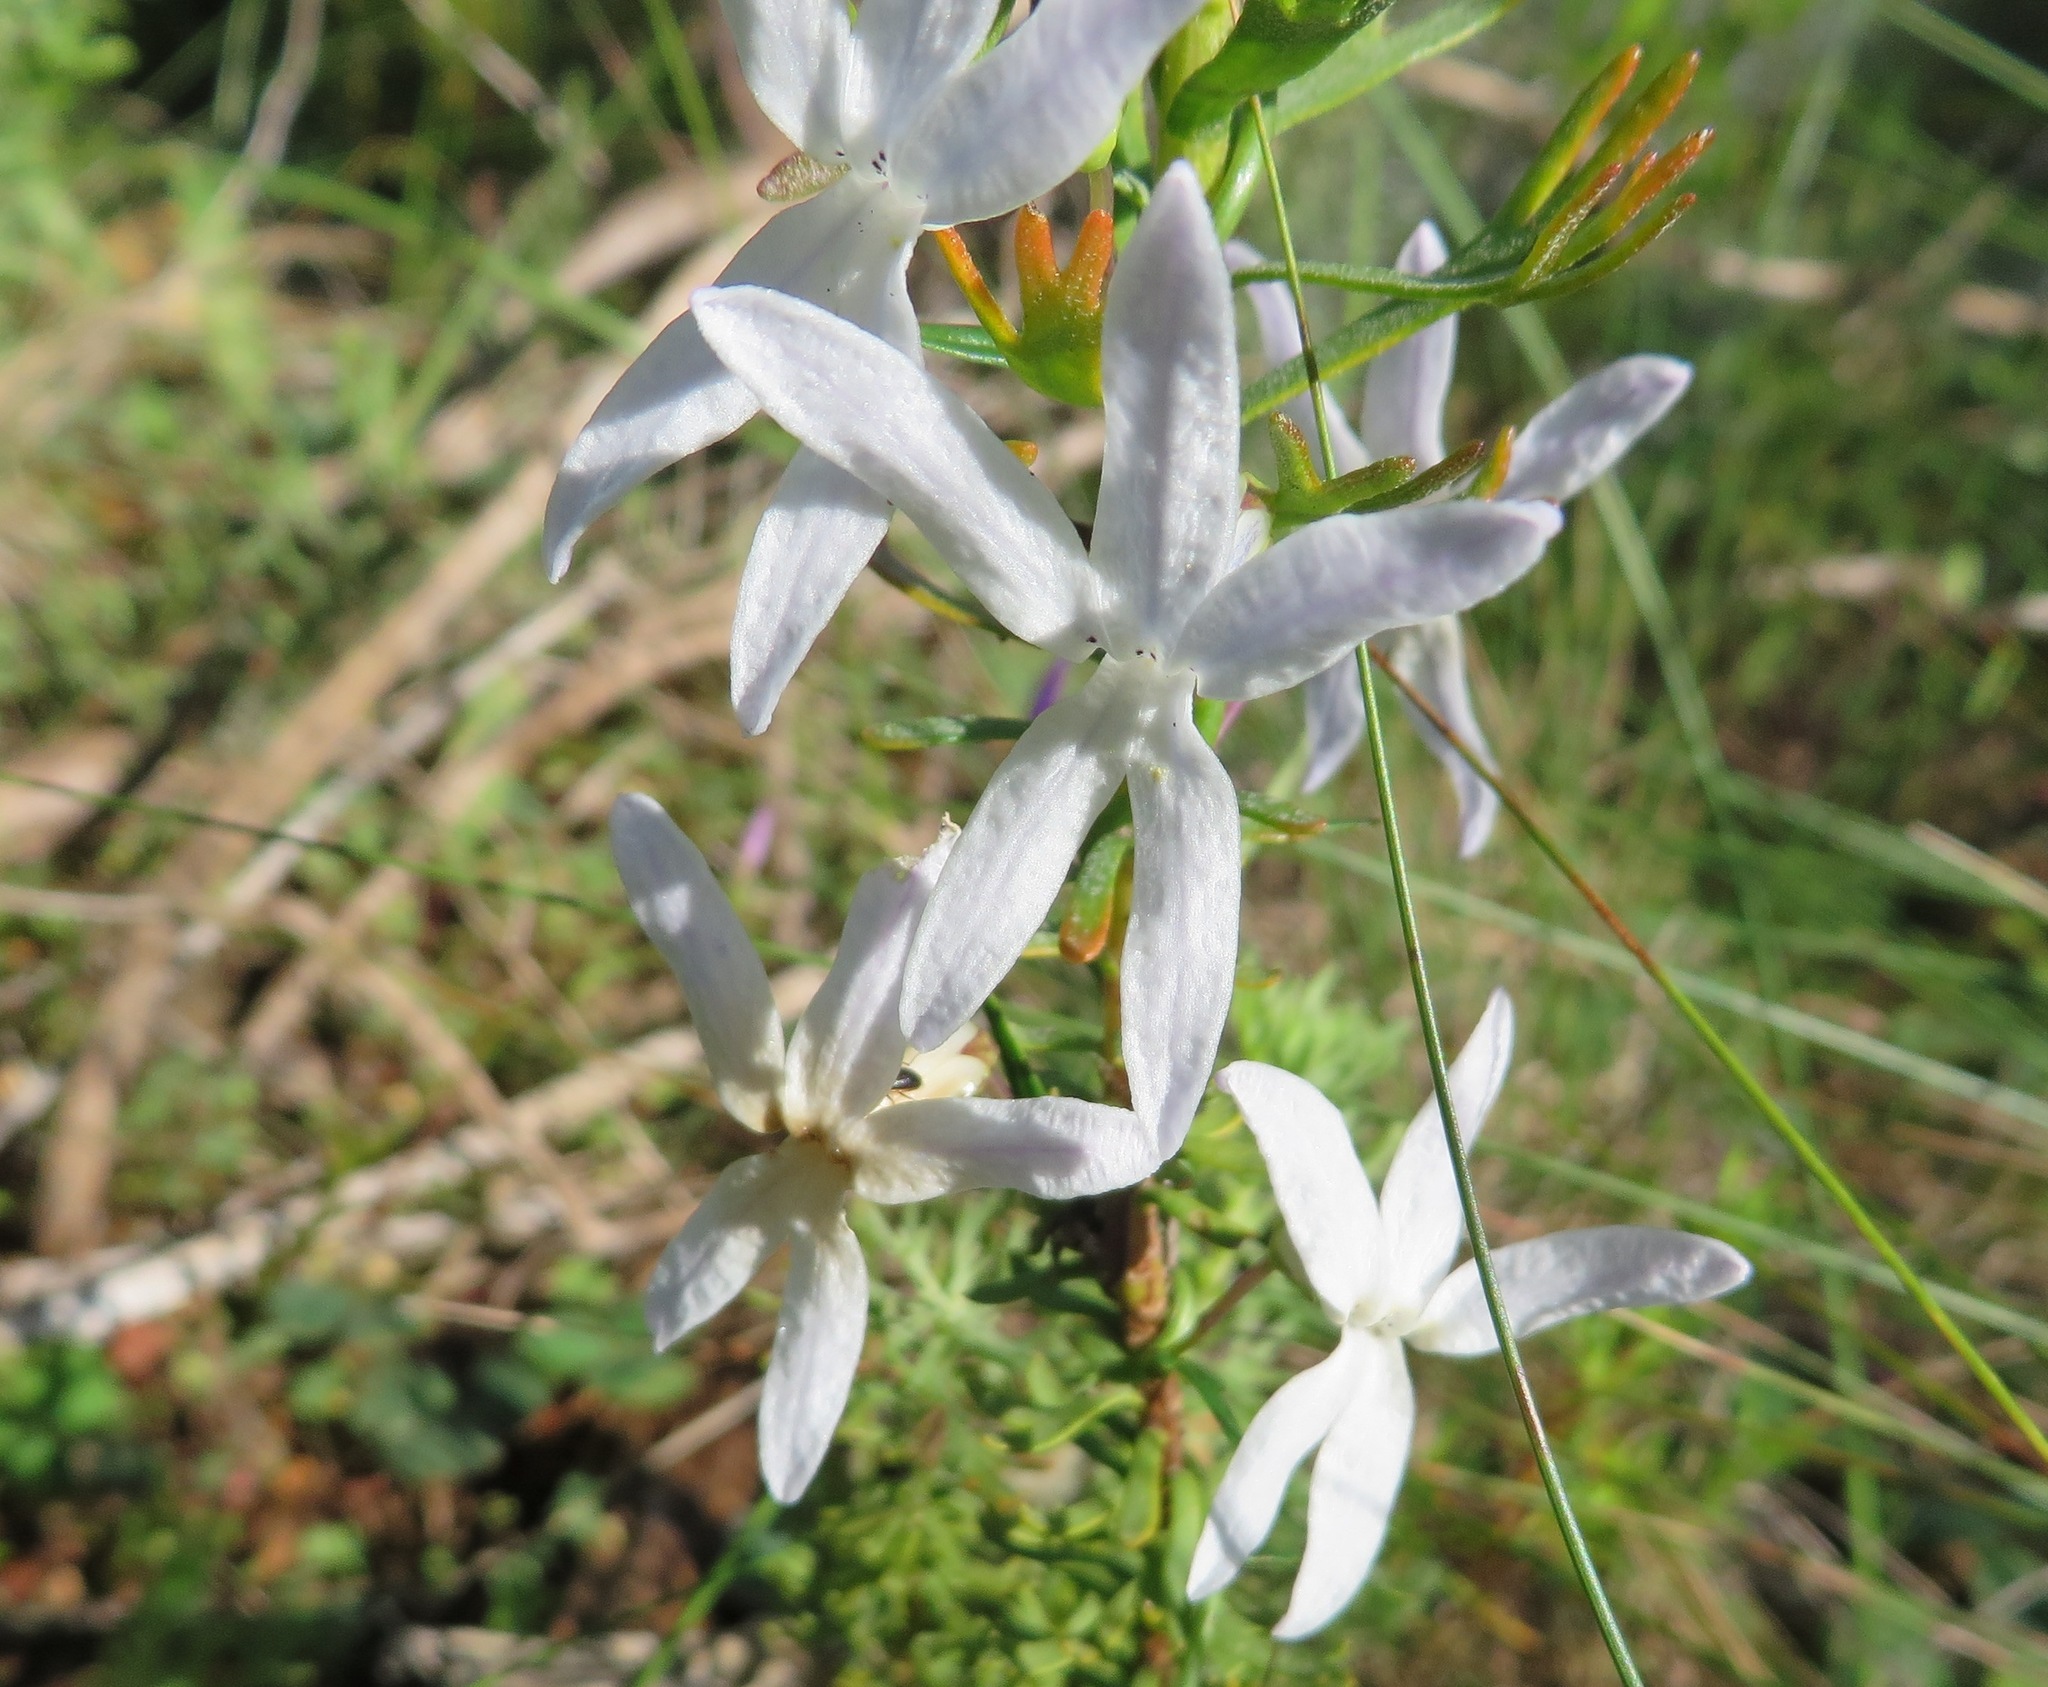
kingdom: Plantae
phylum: Tracheophyta
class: Magnoliopsida
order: Asterales
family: Campanulaceae
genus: Cyphia
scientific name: Cyphia volubilis
